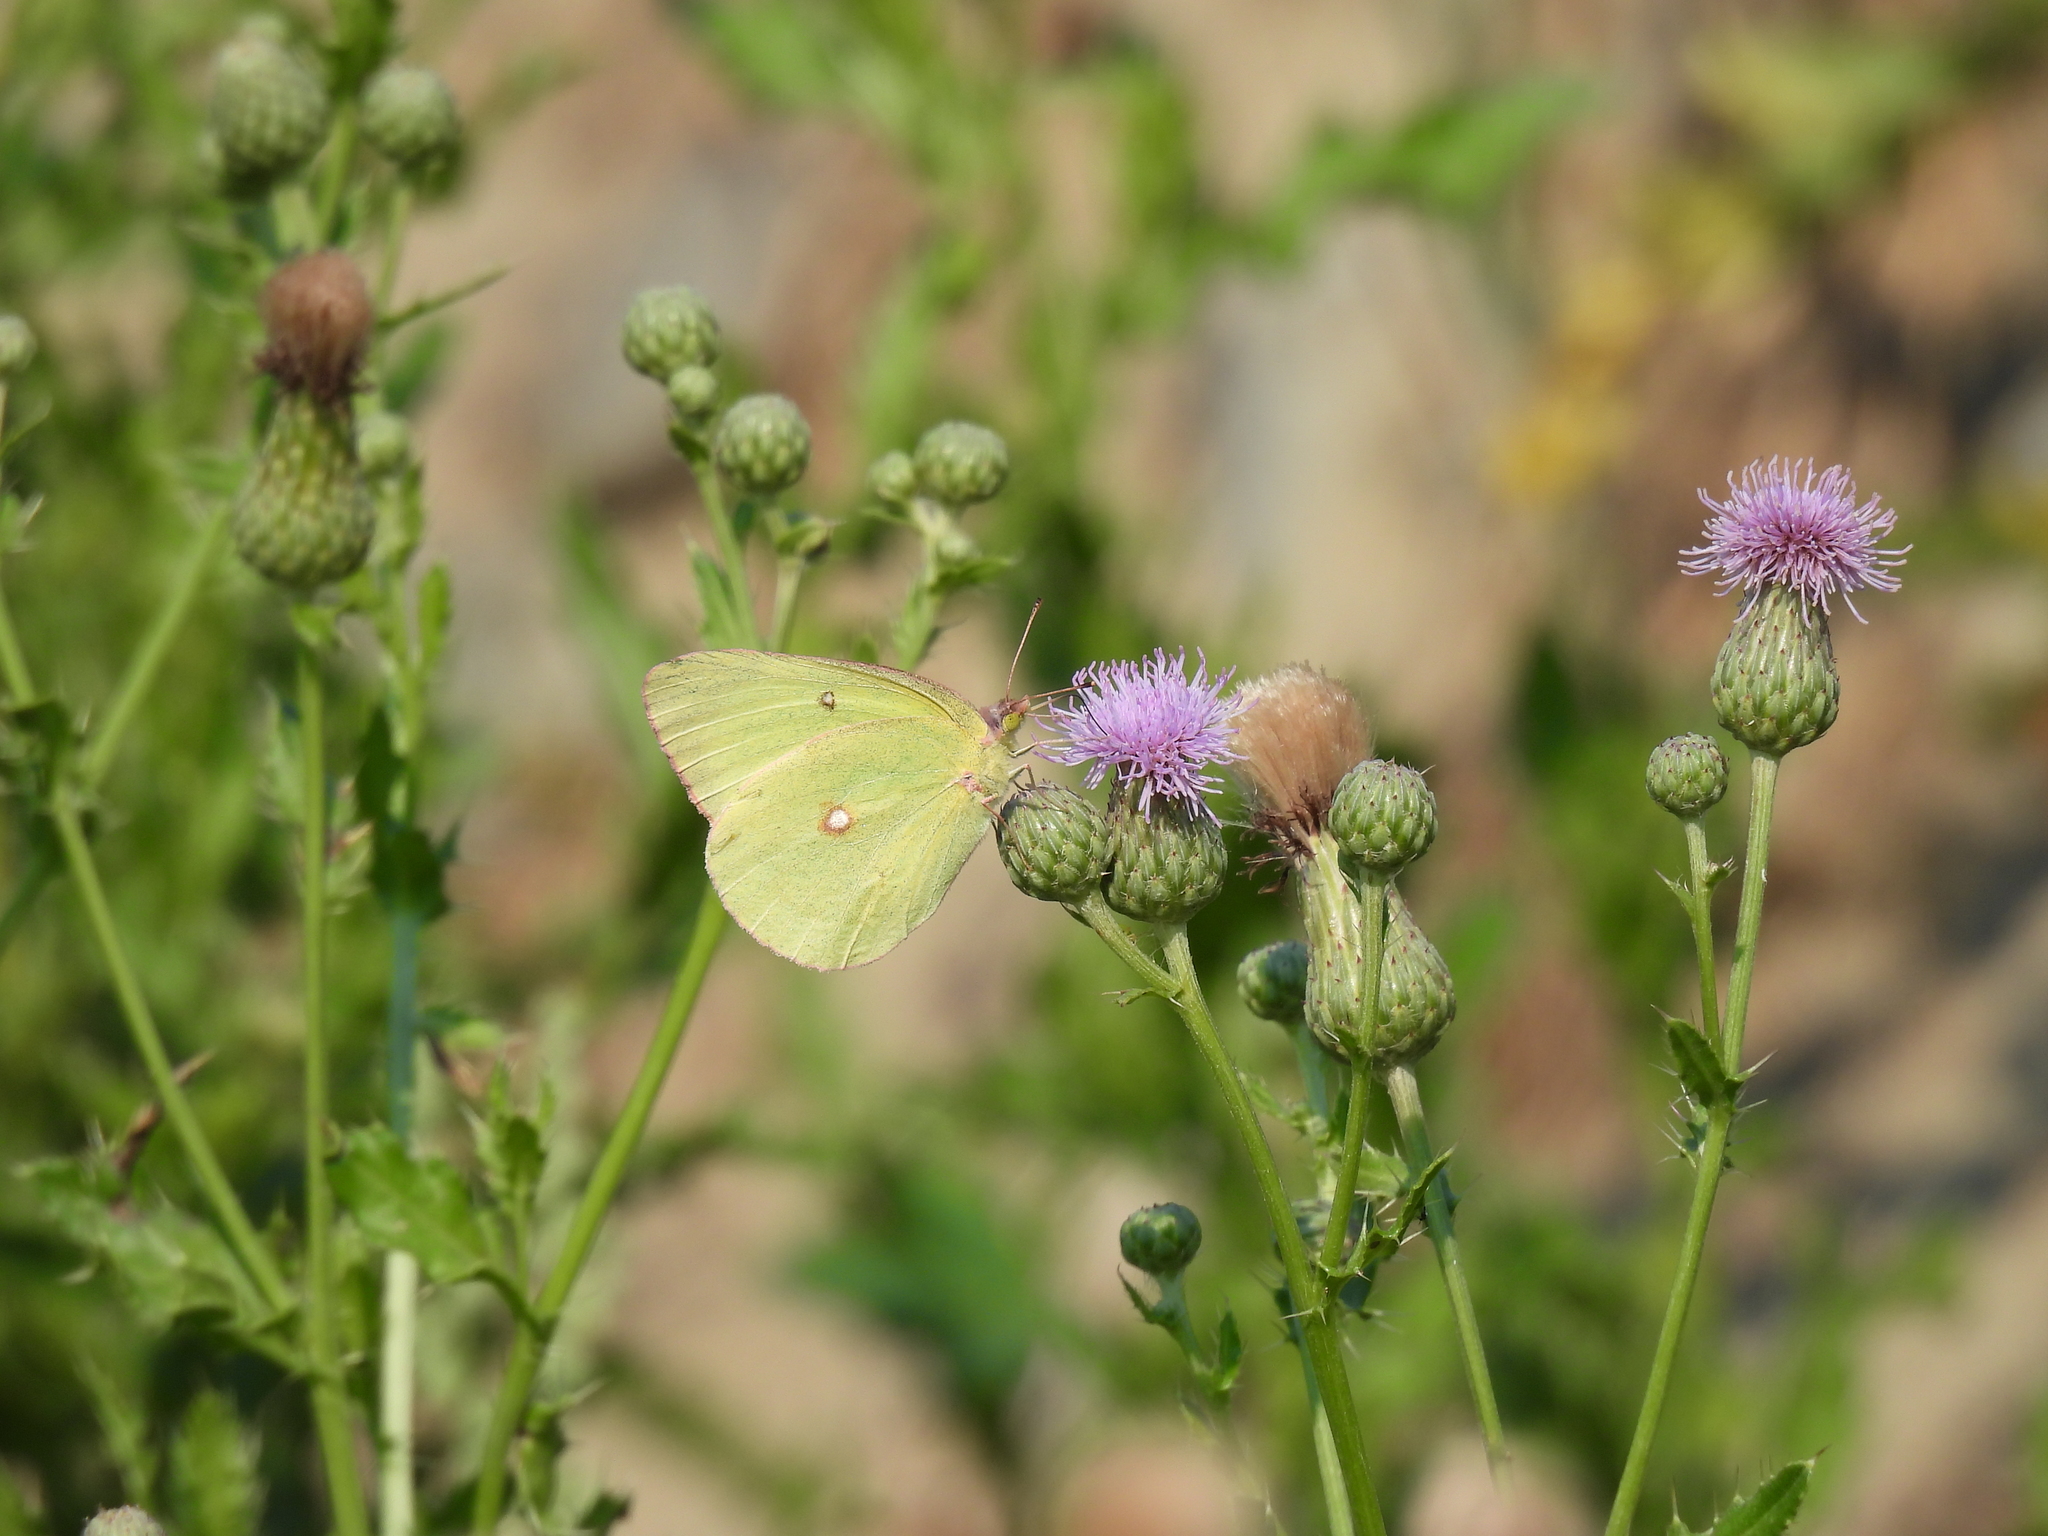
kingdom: Animalia
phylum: Arthropoda
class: Insecta
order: Lepidoptera
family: Pieridae
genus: Colias
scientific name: Colias interior
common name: Pink-edged sulphur
